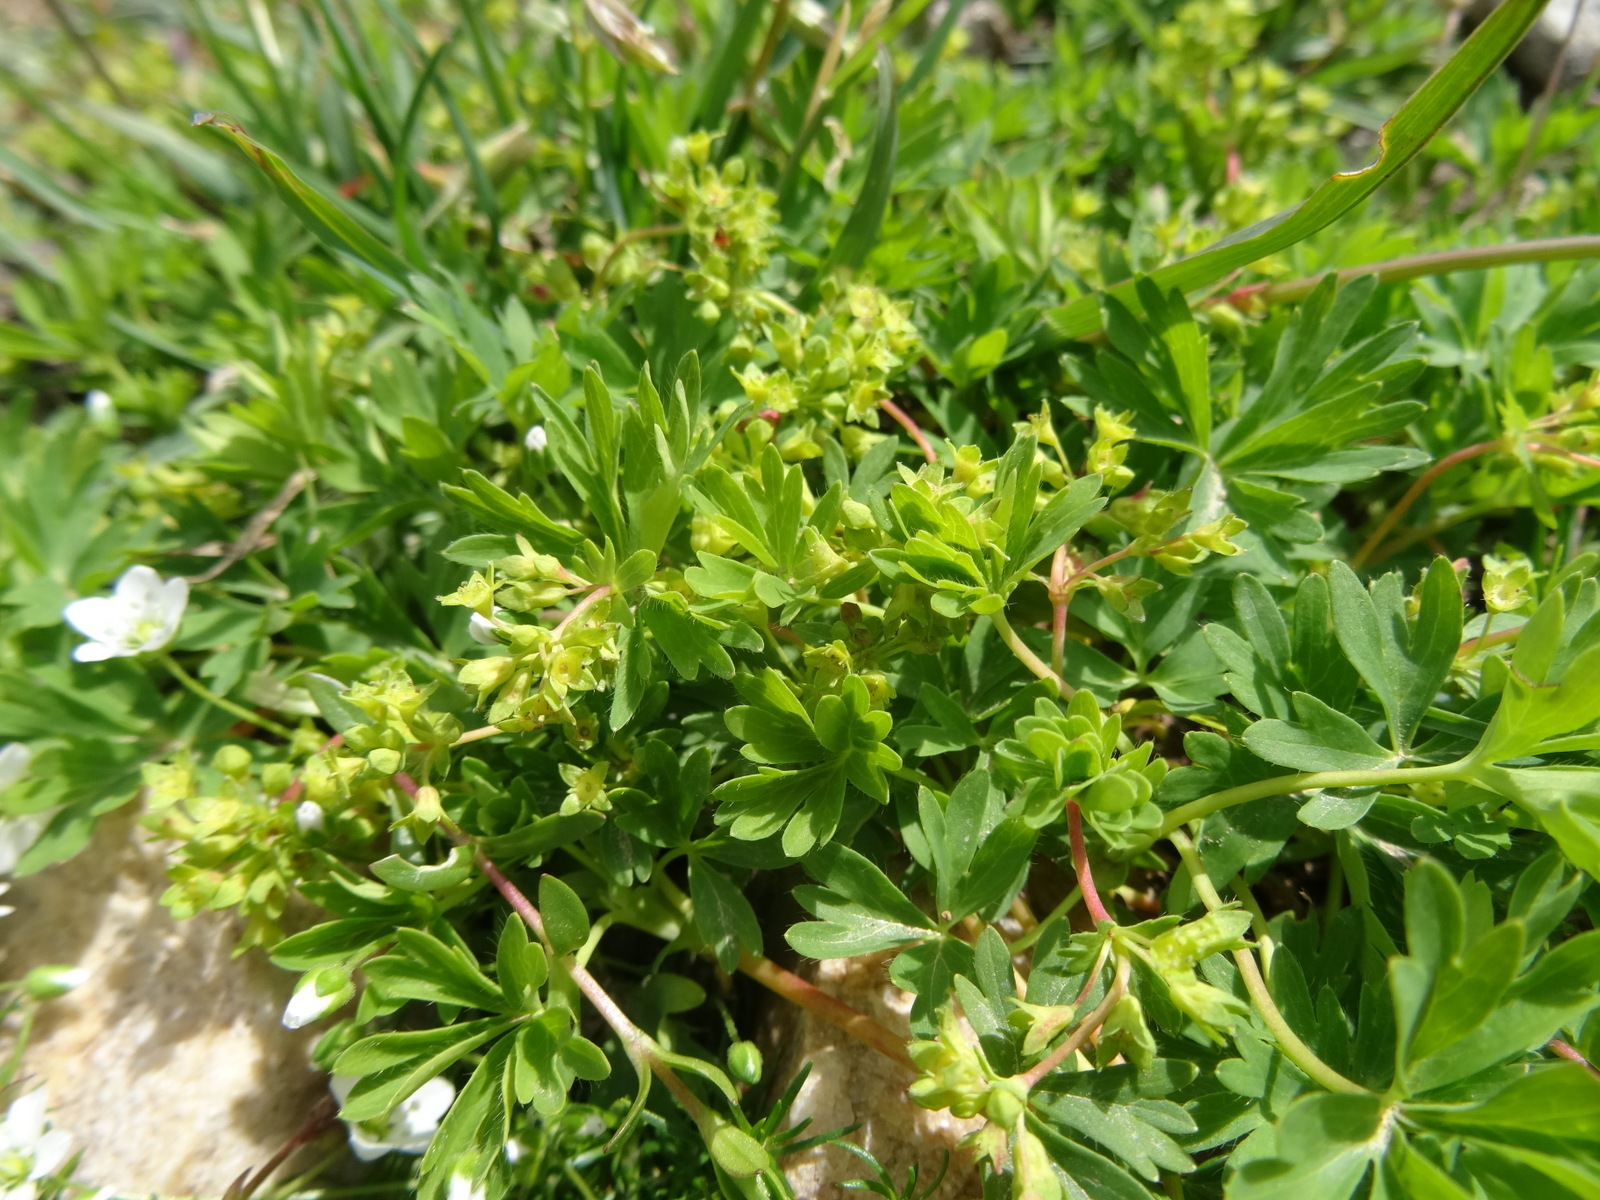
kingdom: Plantae
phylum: Tracheophyta
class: Magnoliopsida
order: Rosales
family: Rosaceae
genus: Alchemilla
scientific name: Alchemilla pentaphyllea
